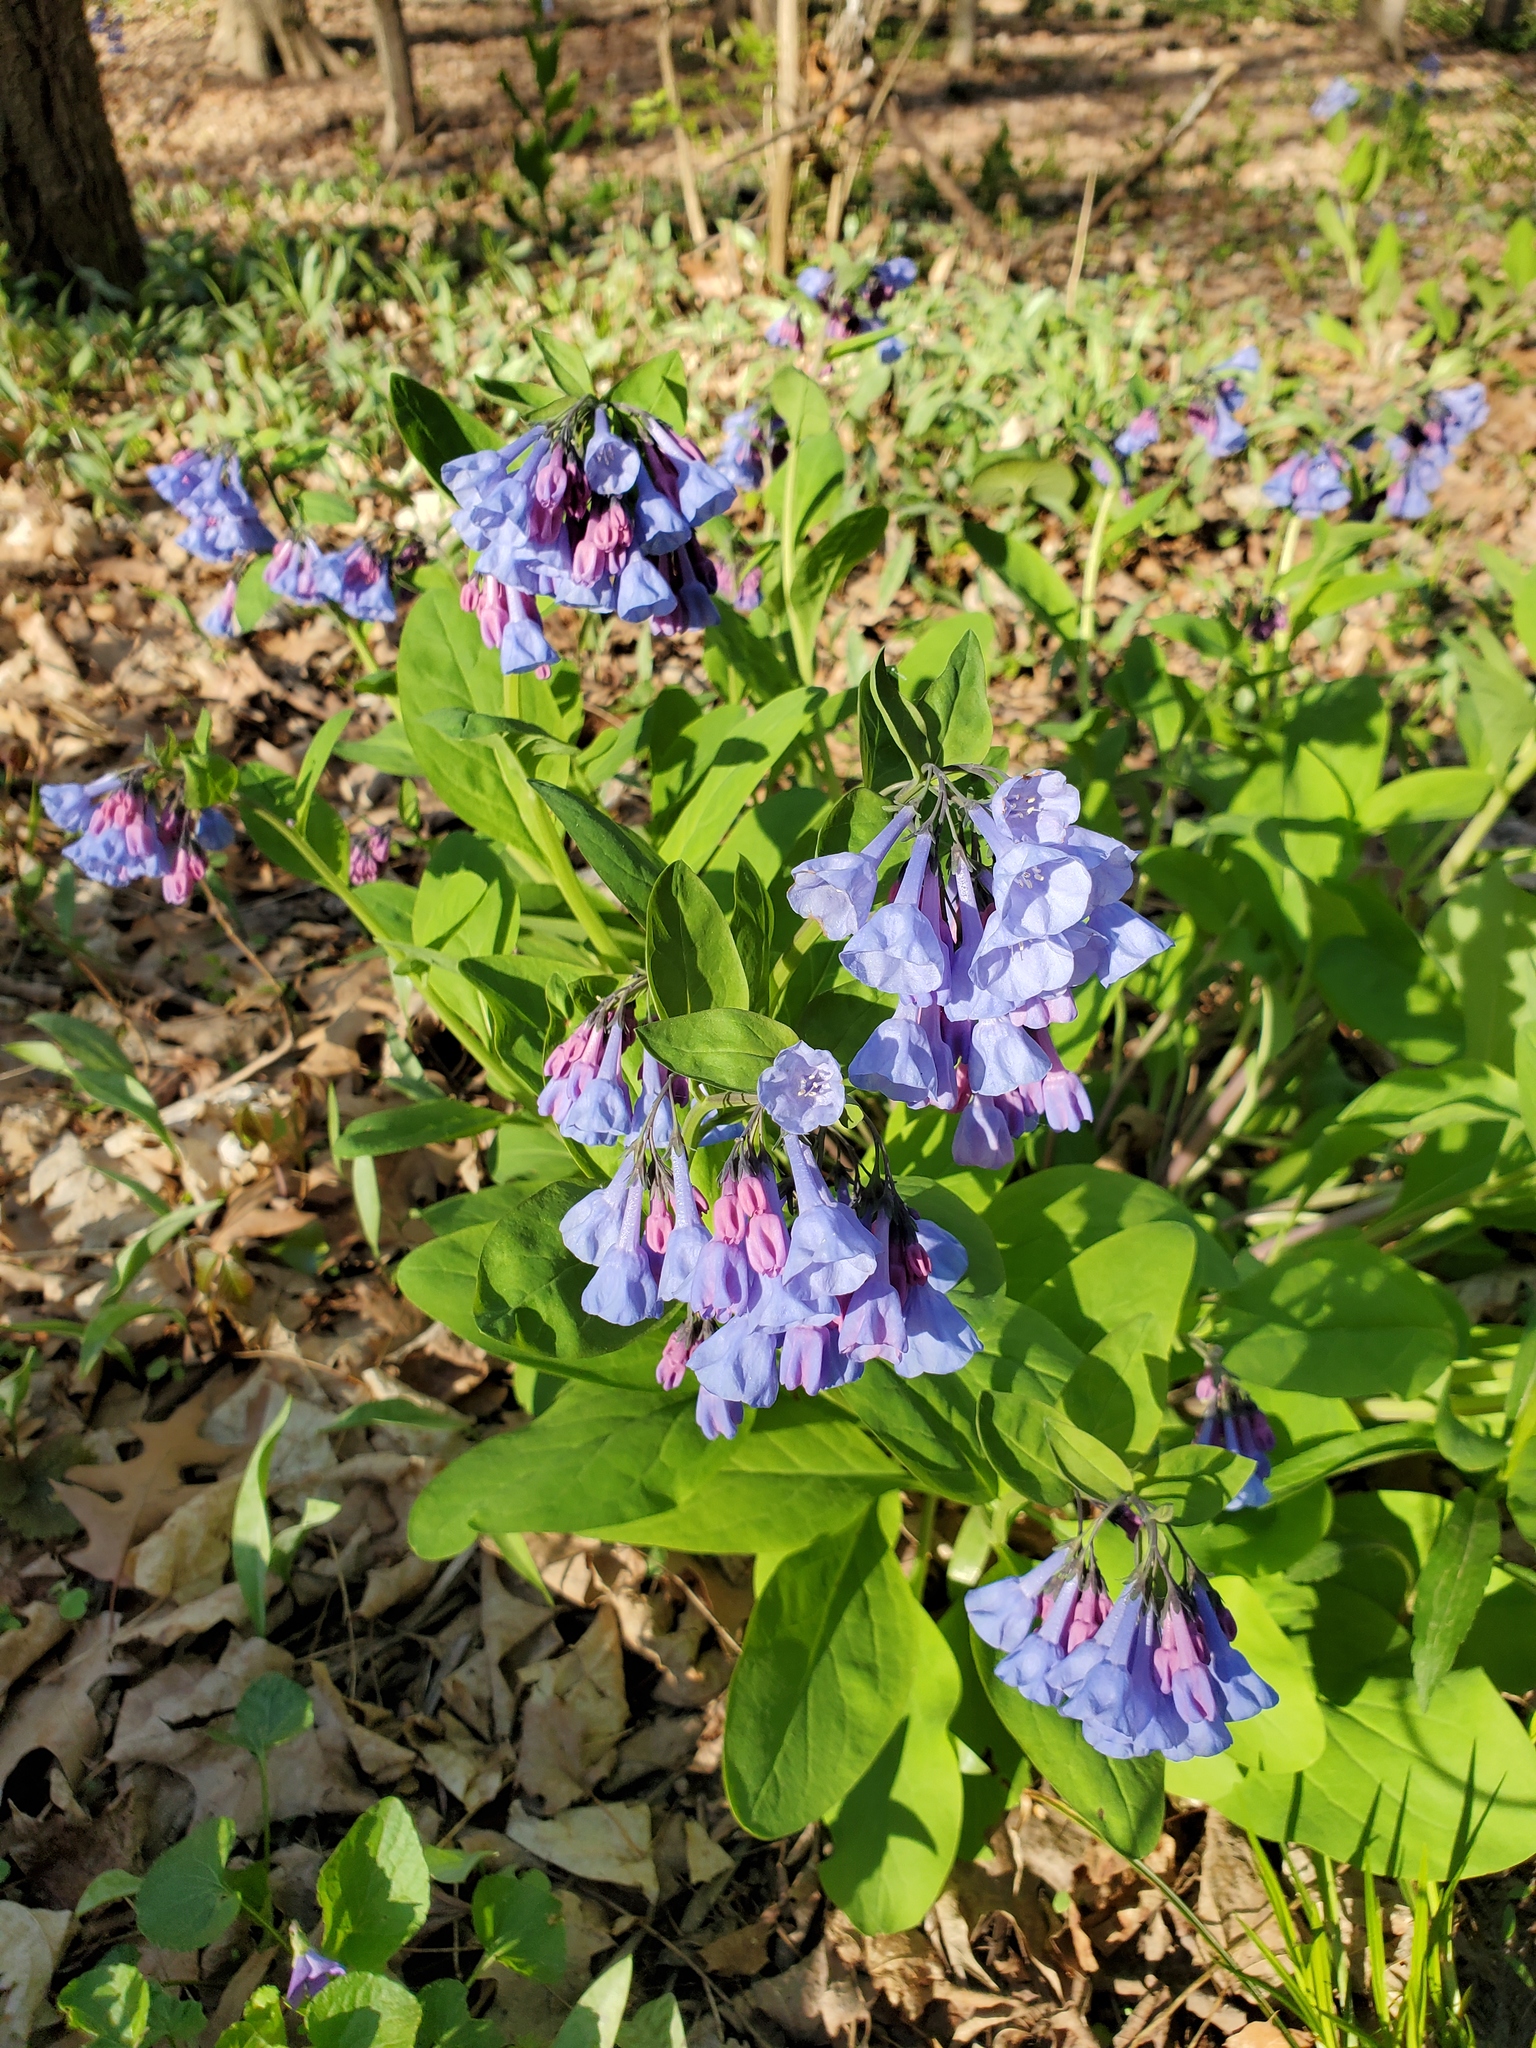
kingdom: Plantae
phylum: Tracheophyta
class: Magnoliopsida
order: Boraginales
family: Boraginaceae
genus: Mertensia
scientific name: Mertensia virginica
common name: Virginia bluebells
